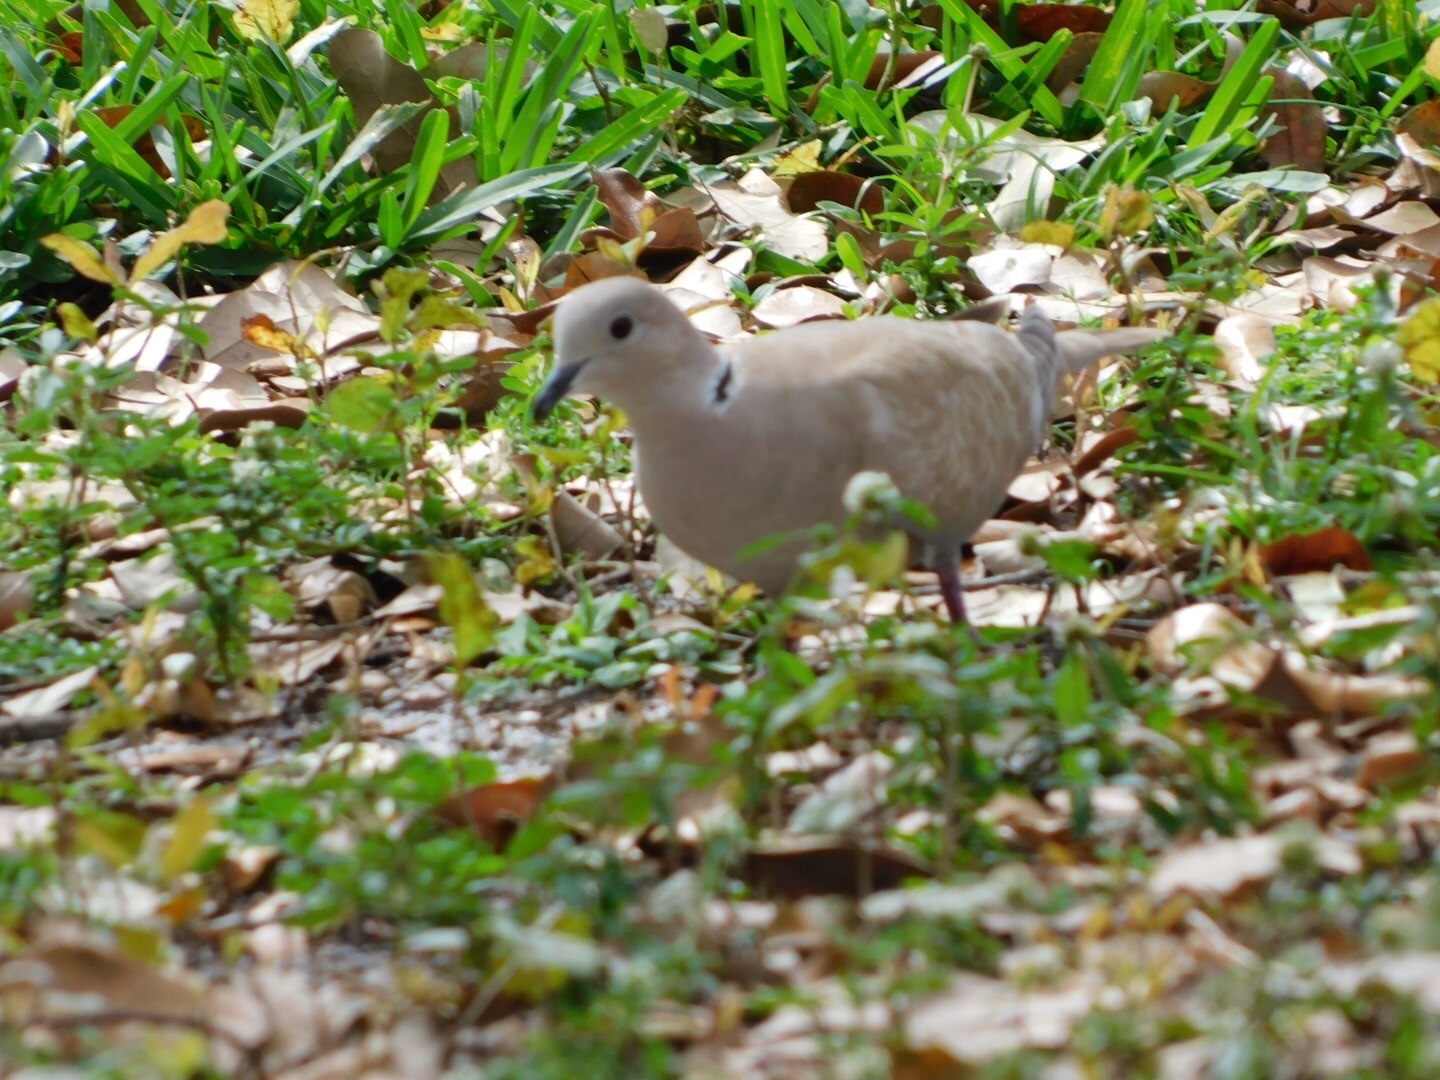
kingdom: Animalia
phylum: Chordata
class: Aves
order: Columbiformes
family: Columbidae
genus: Streptopelia
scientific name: Streptopelia decaocto
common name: Eurasian collared dove
